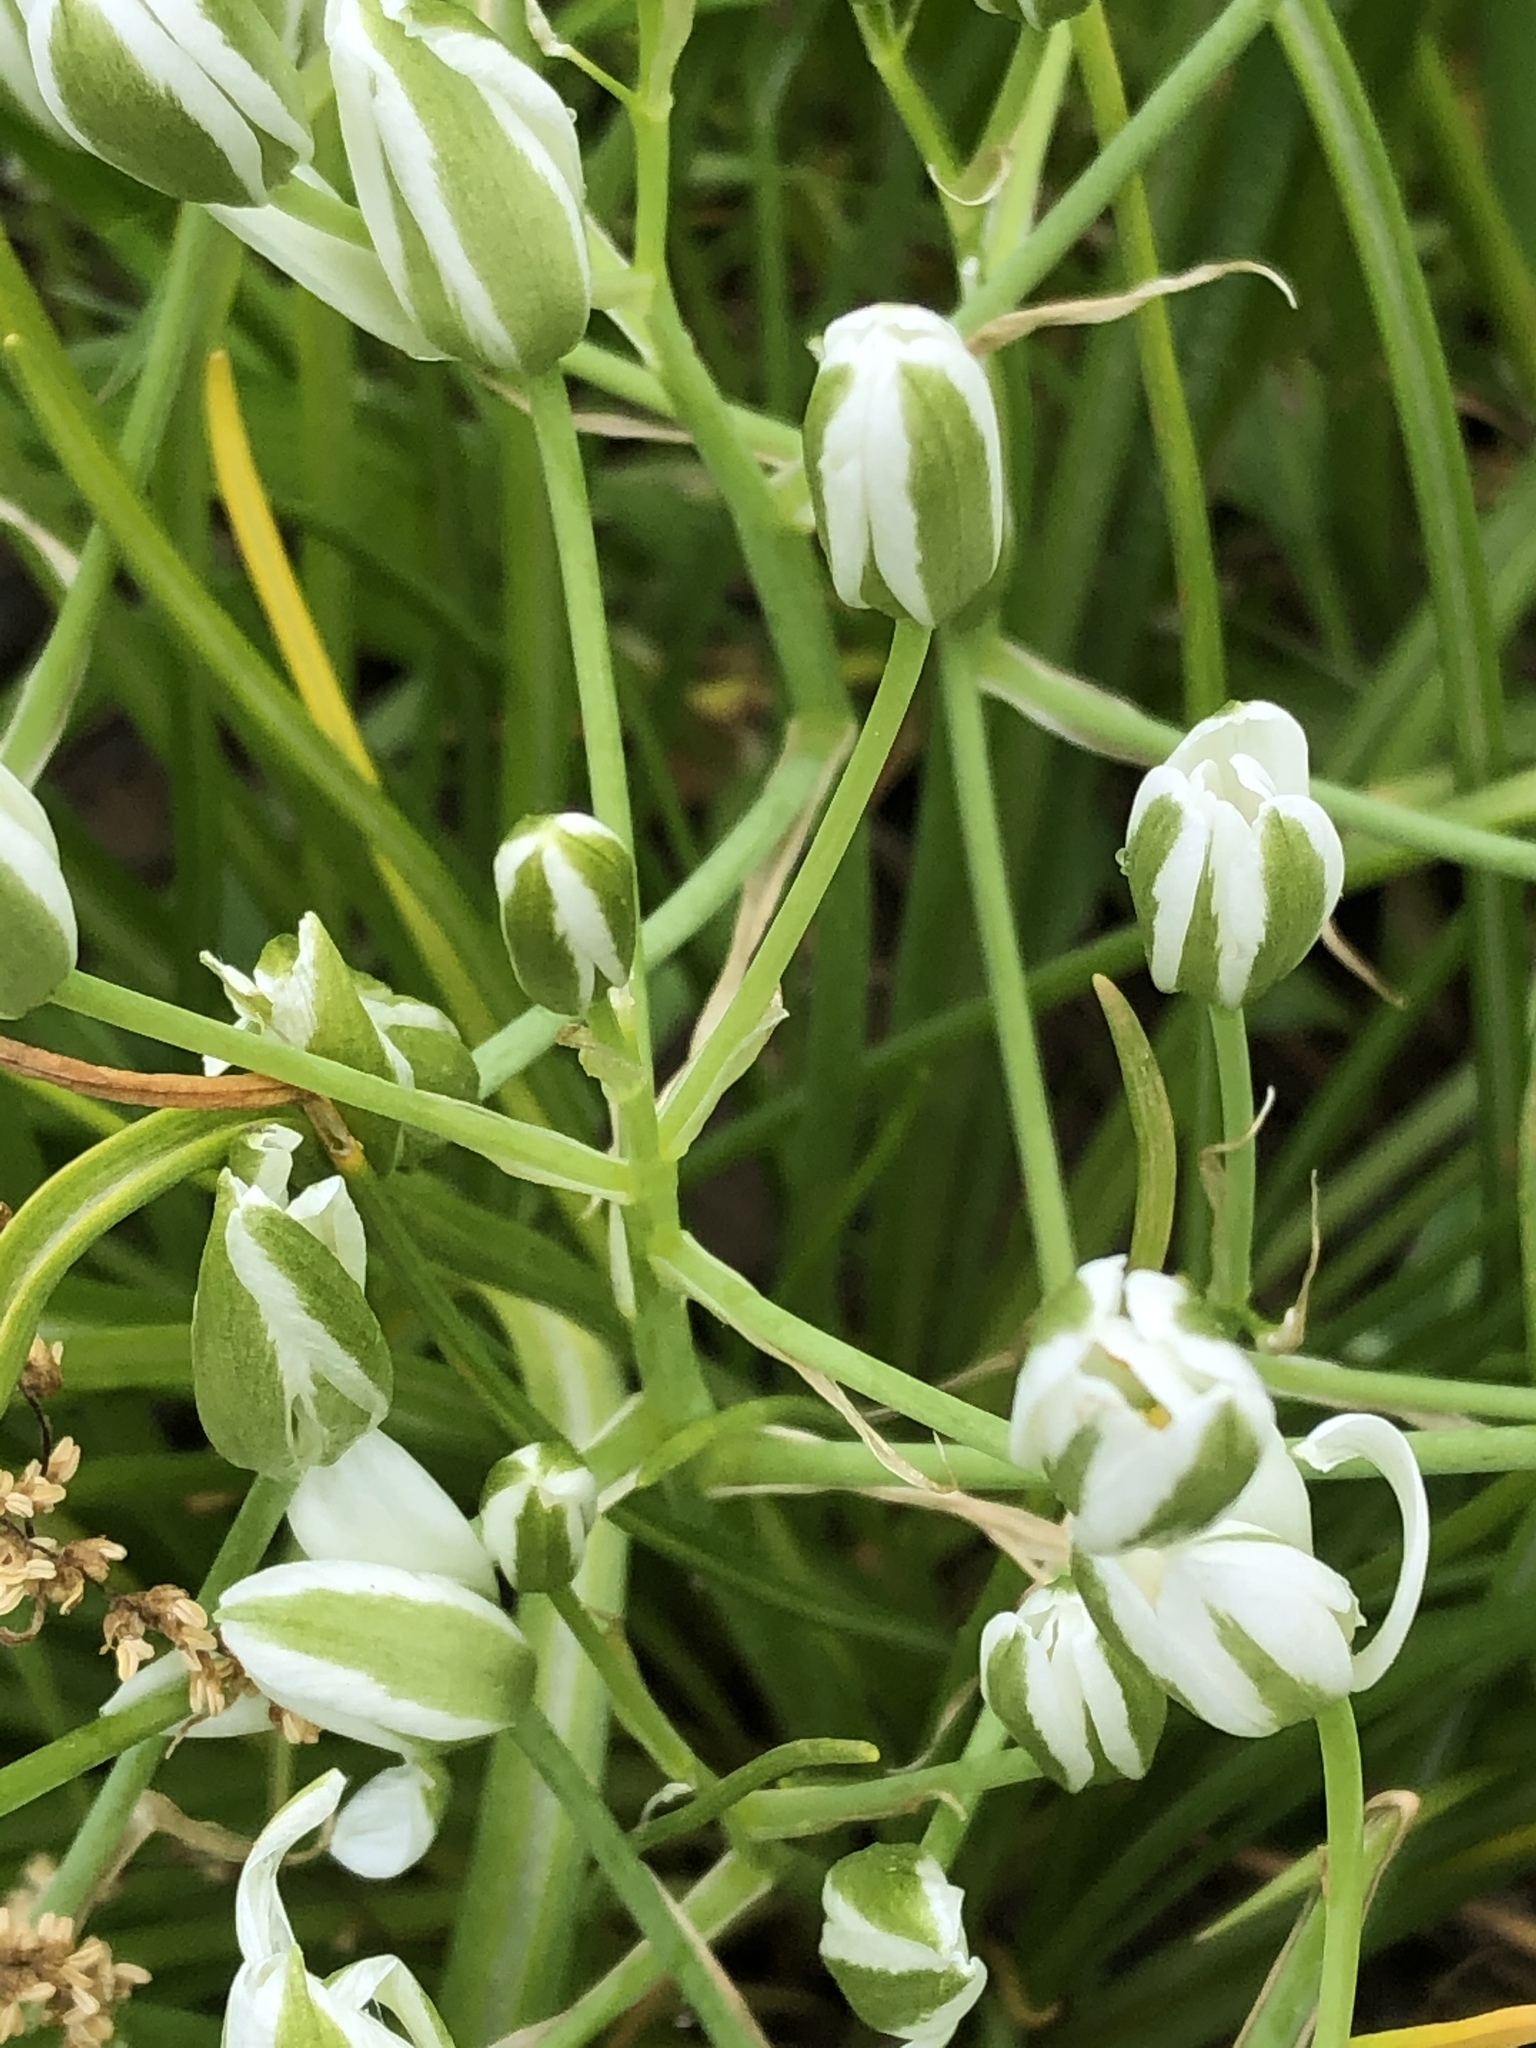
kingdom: Plantae
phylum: Tracheophyta
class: Liliopsida
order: Asparagales
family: Asparagaceae
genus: Ornithogalum
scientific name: Ornithogalum umbellatum
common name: Garden star-of-bethlehem
